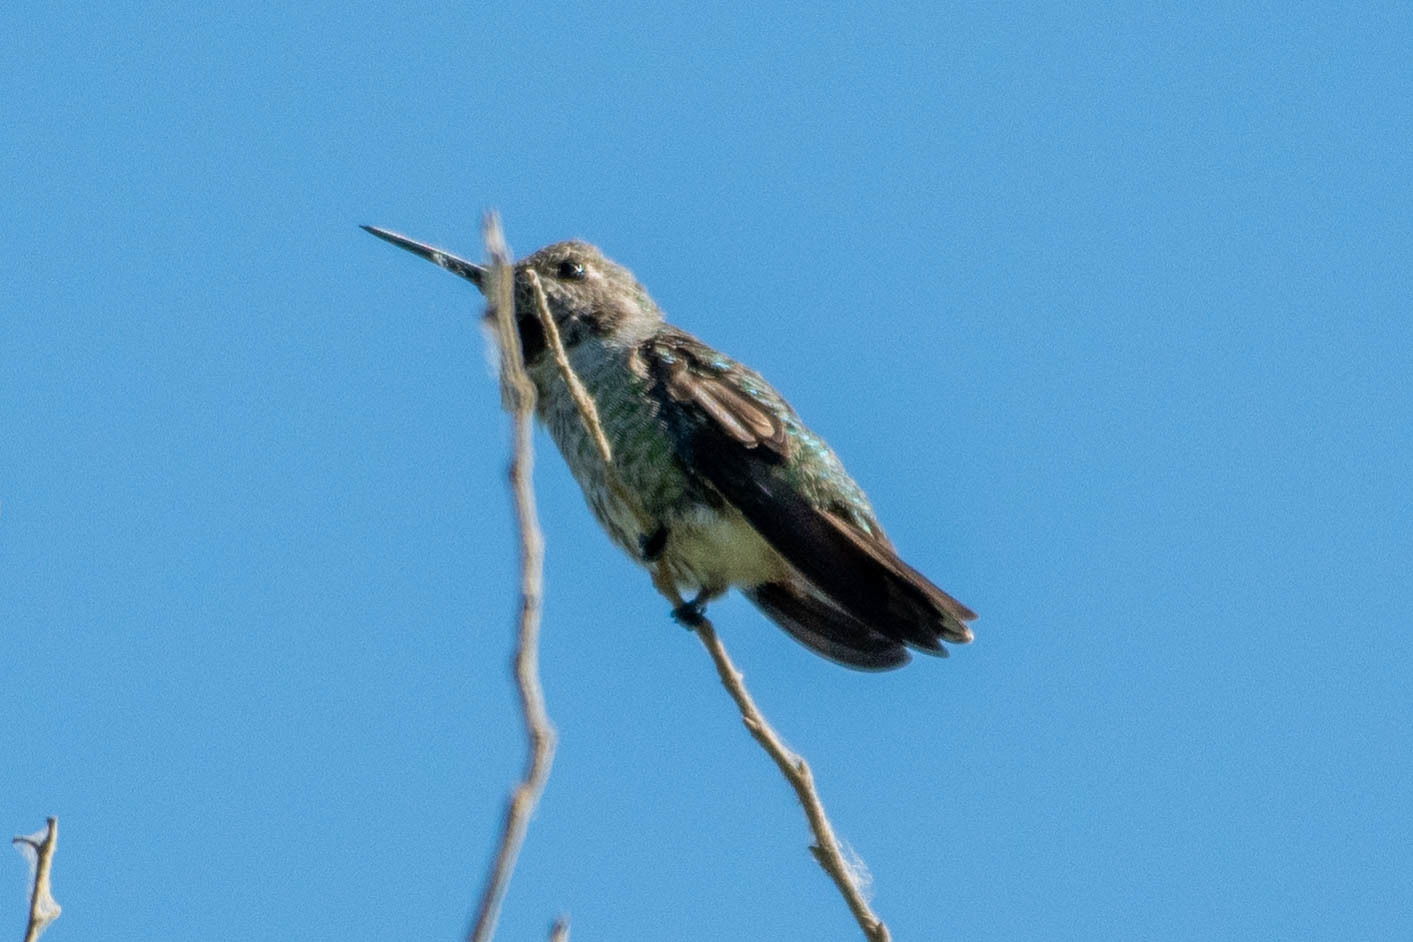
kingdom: Animalia
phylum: Chordata
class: Aves
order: Apodiformes
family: Trochilidae
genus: Calypte
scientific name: Calypte anna
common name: Anna's hummingbird
